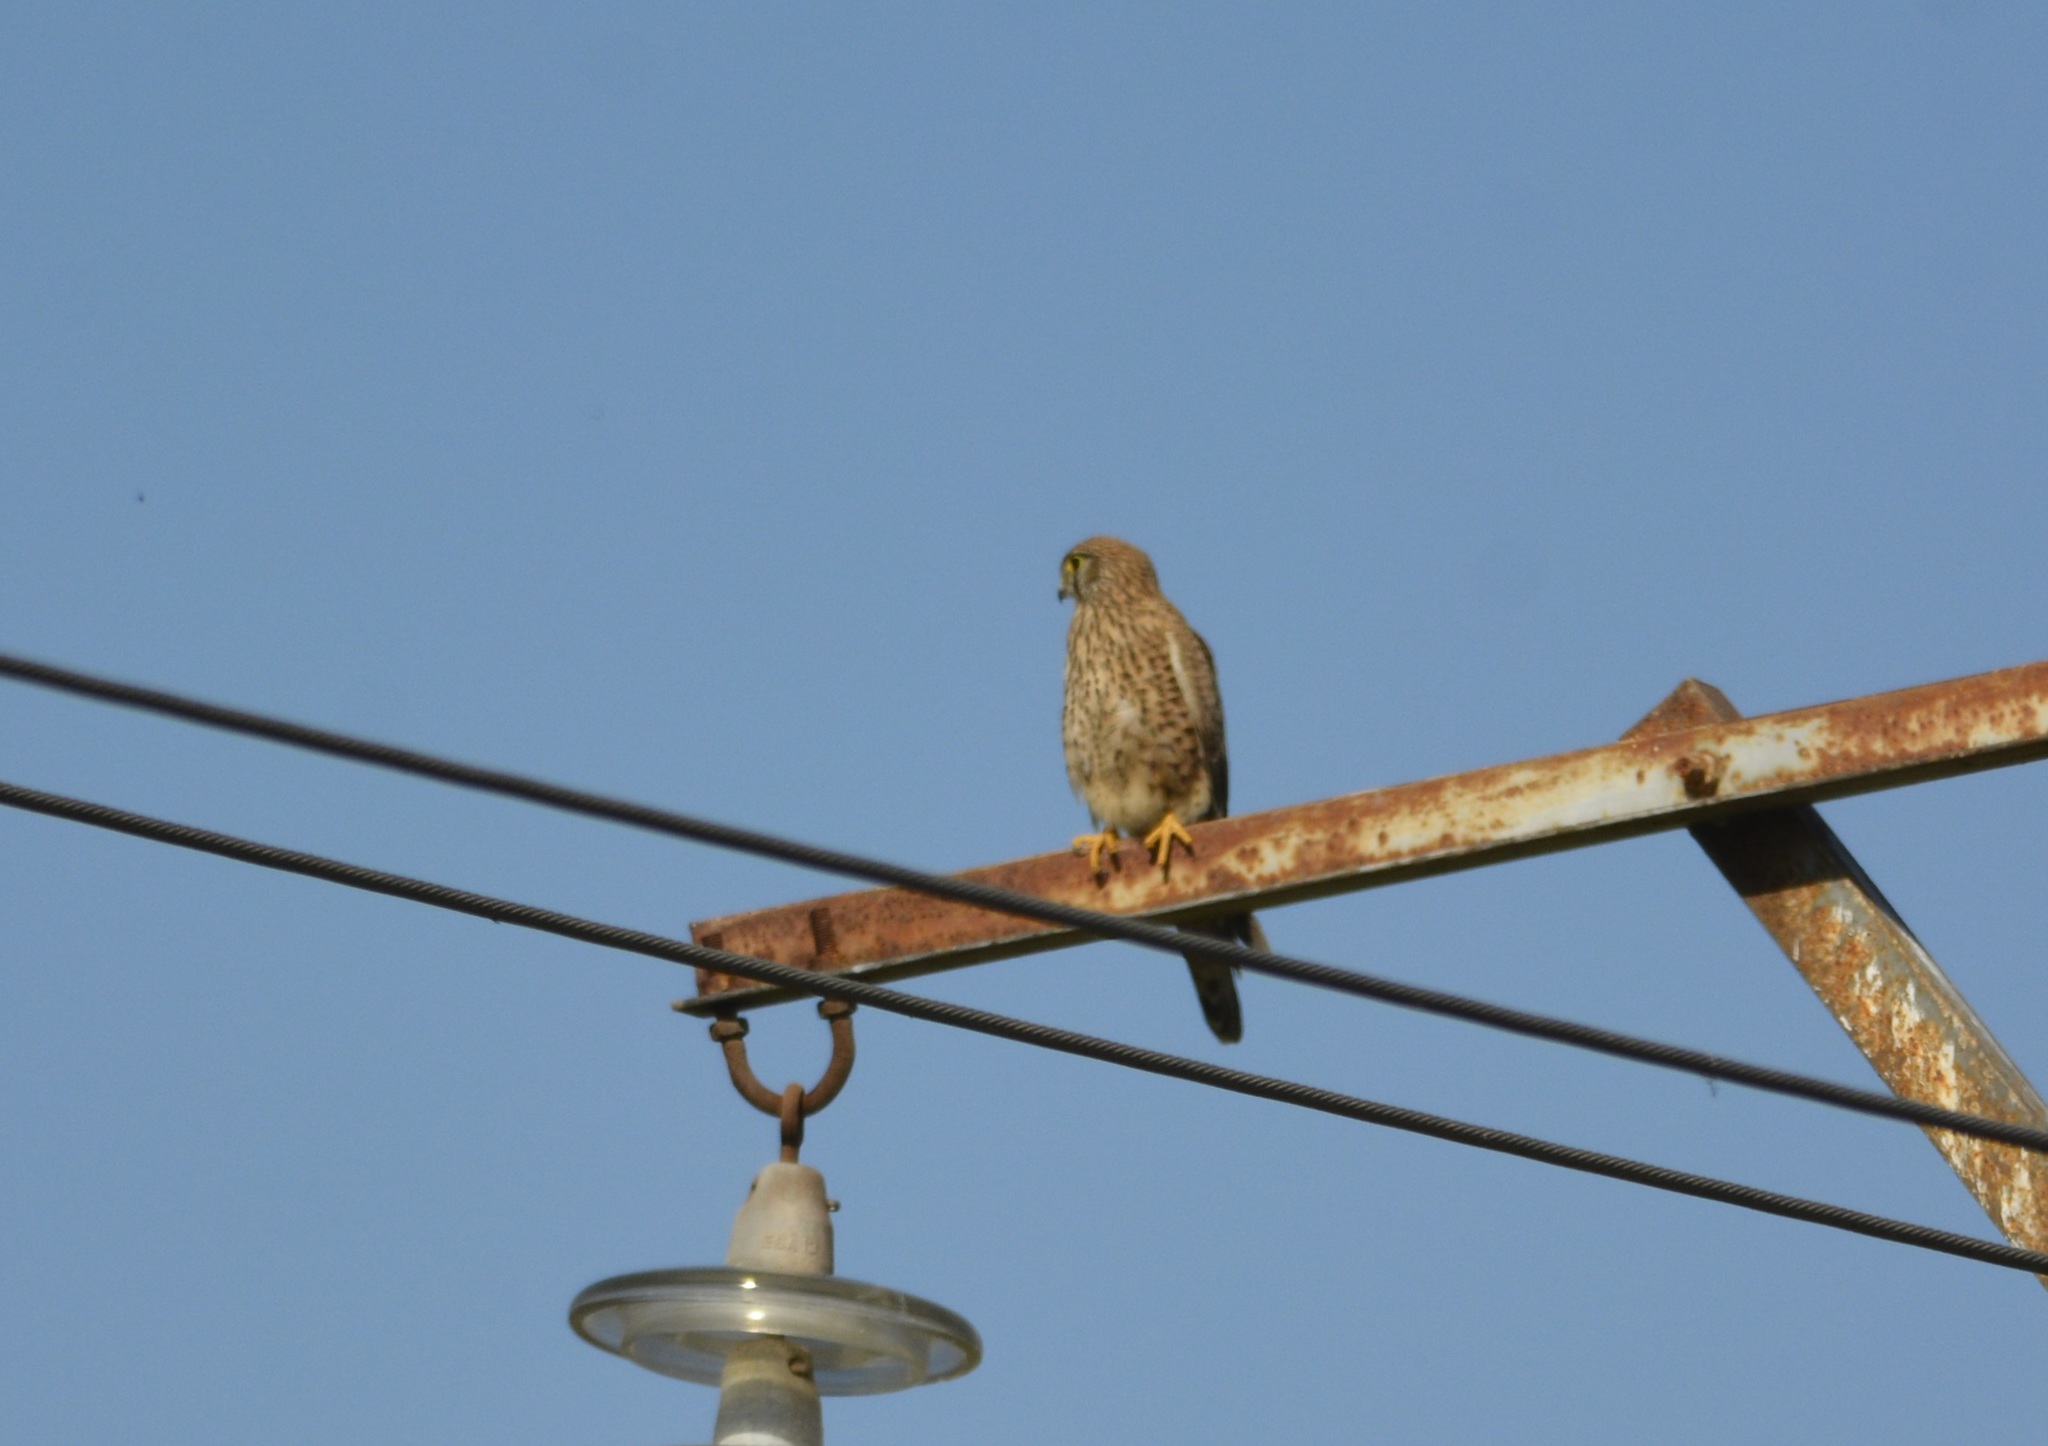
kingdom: Animalia
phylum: Chordata
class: Aves
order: Falconiformes
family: Falconidae
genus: Falco
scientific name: Falco tinnunculus
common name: Common kestrel
